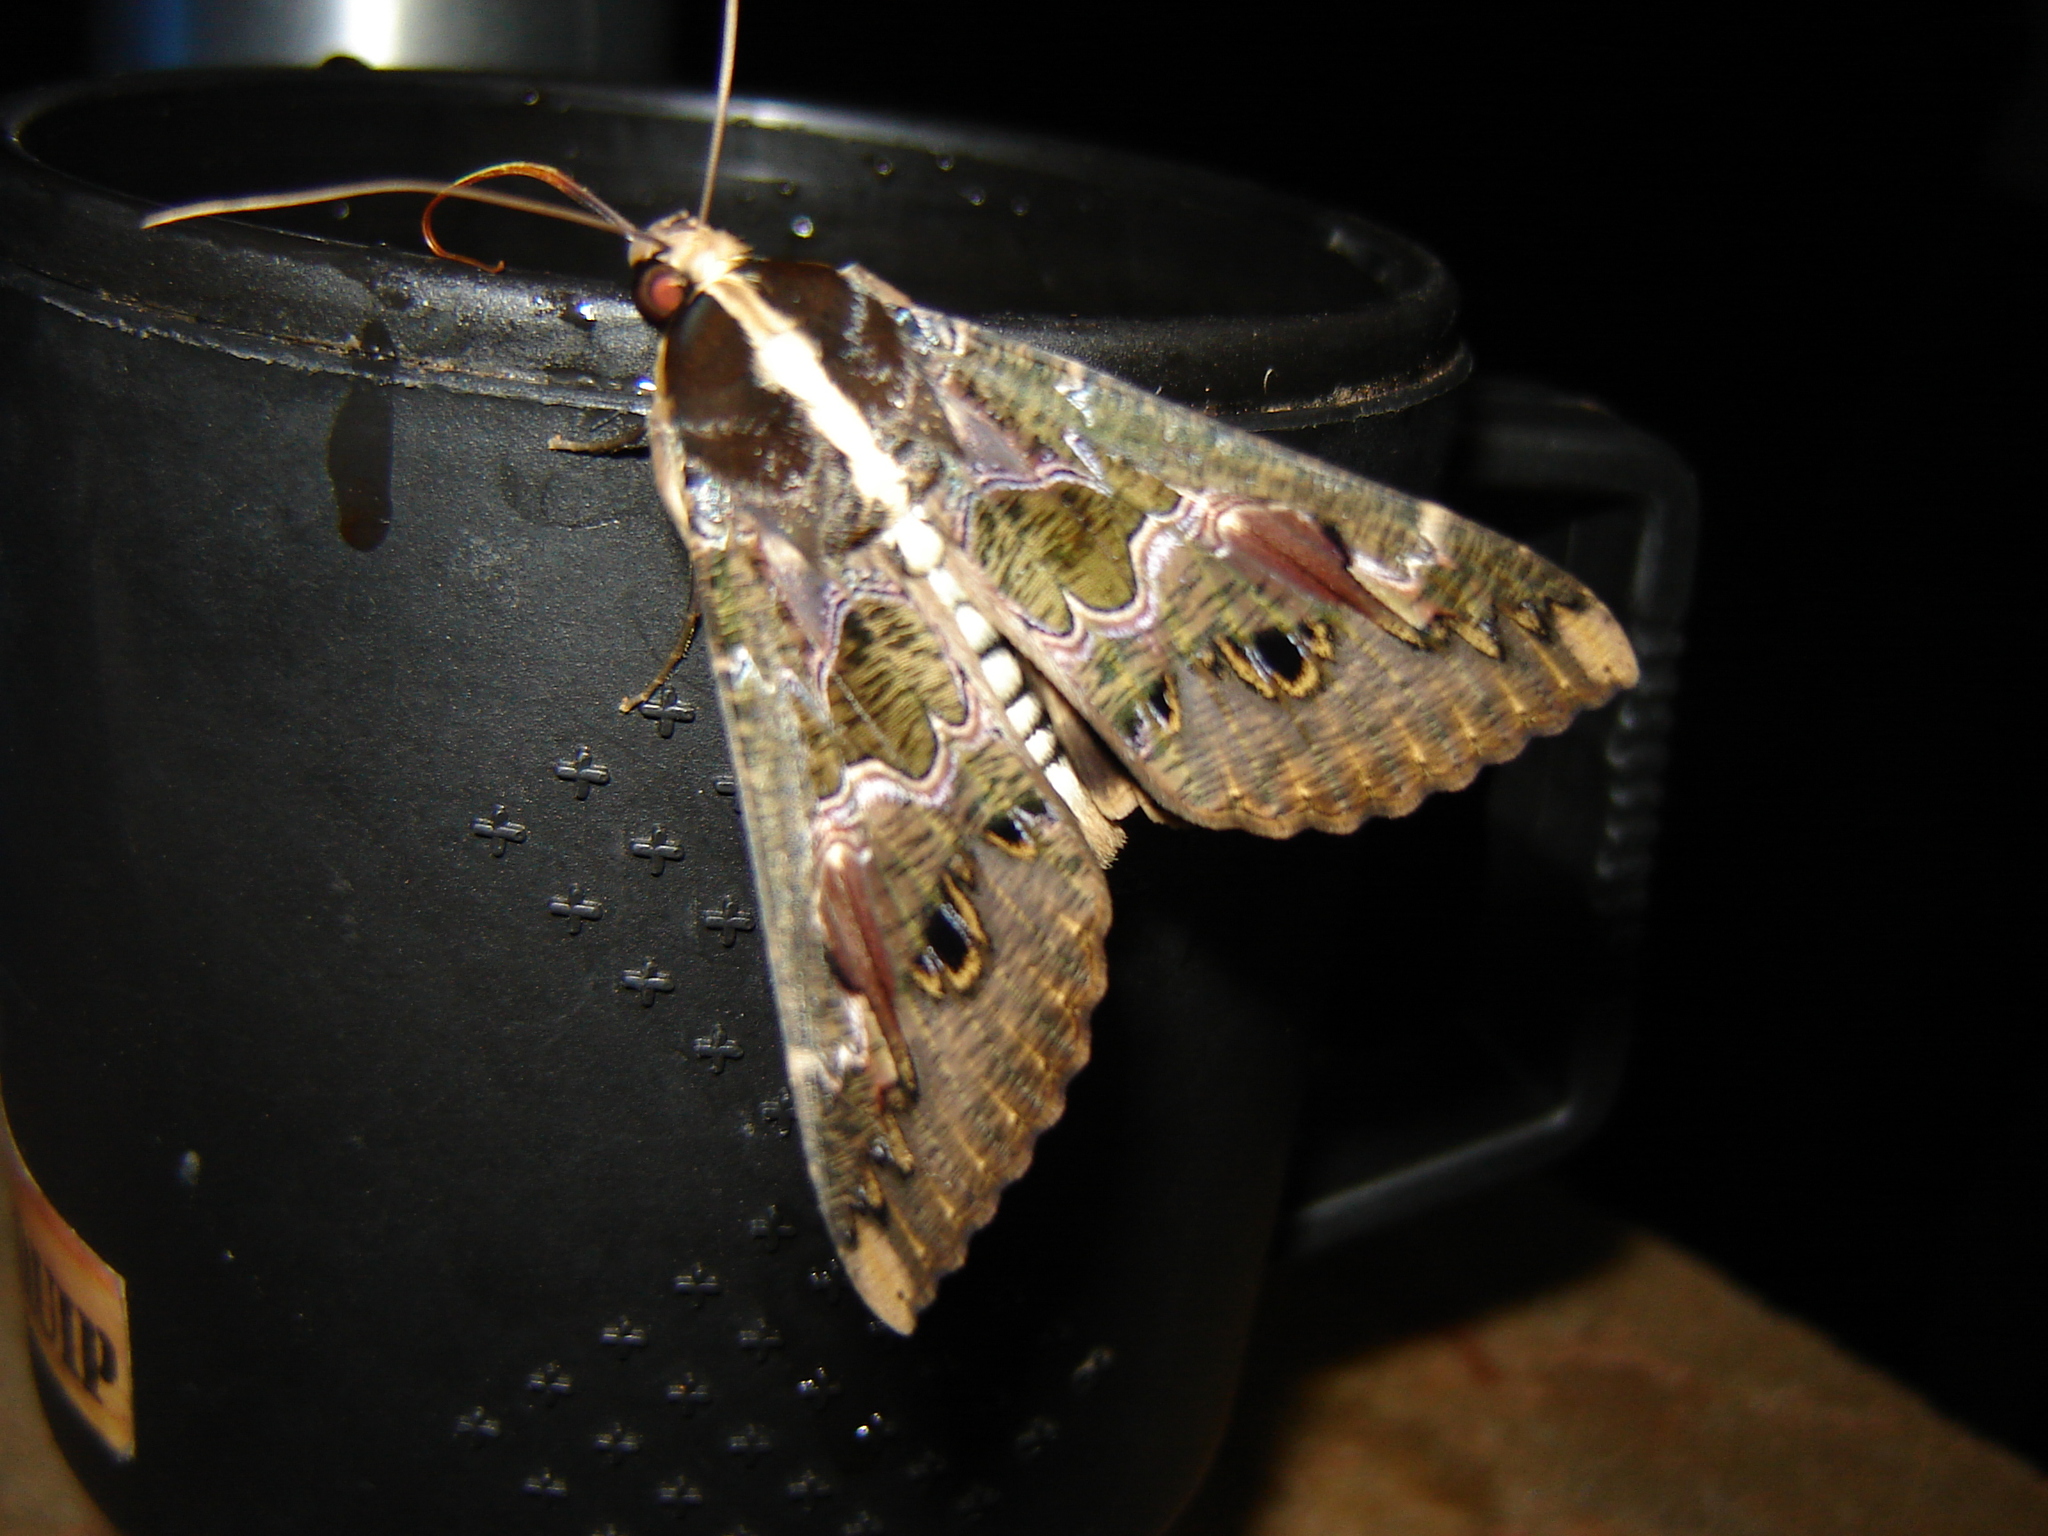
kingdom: Animalia
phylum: Arthropoda
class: Insecta
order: Lepidoptera
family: Erebidae
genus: Sphingomorpha
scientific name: Sphingomorpha chlorea
